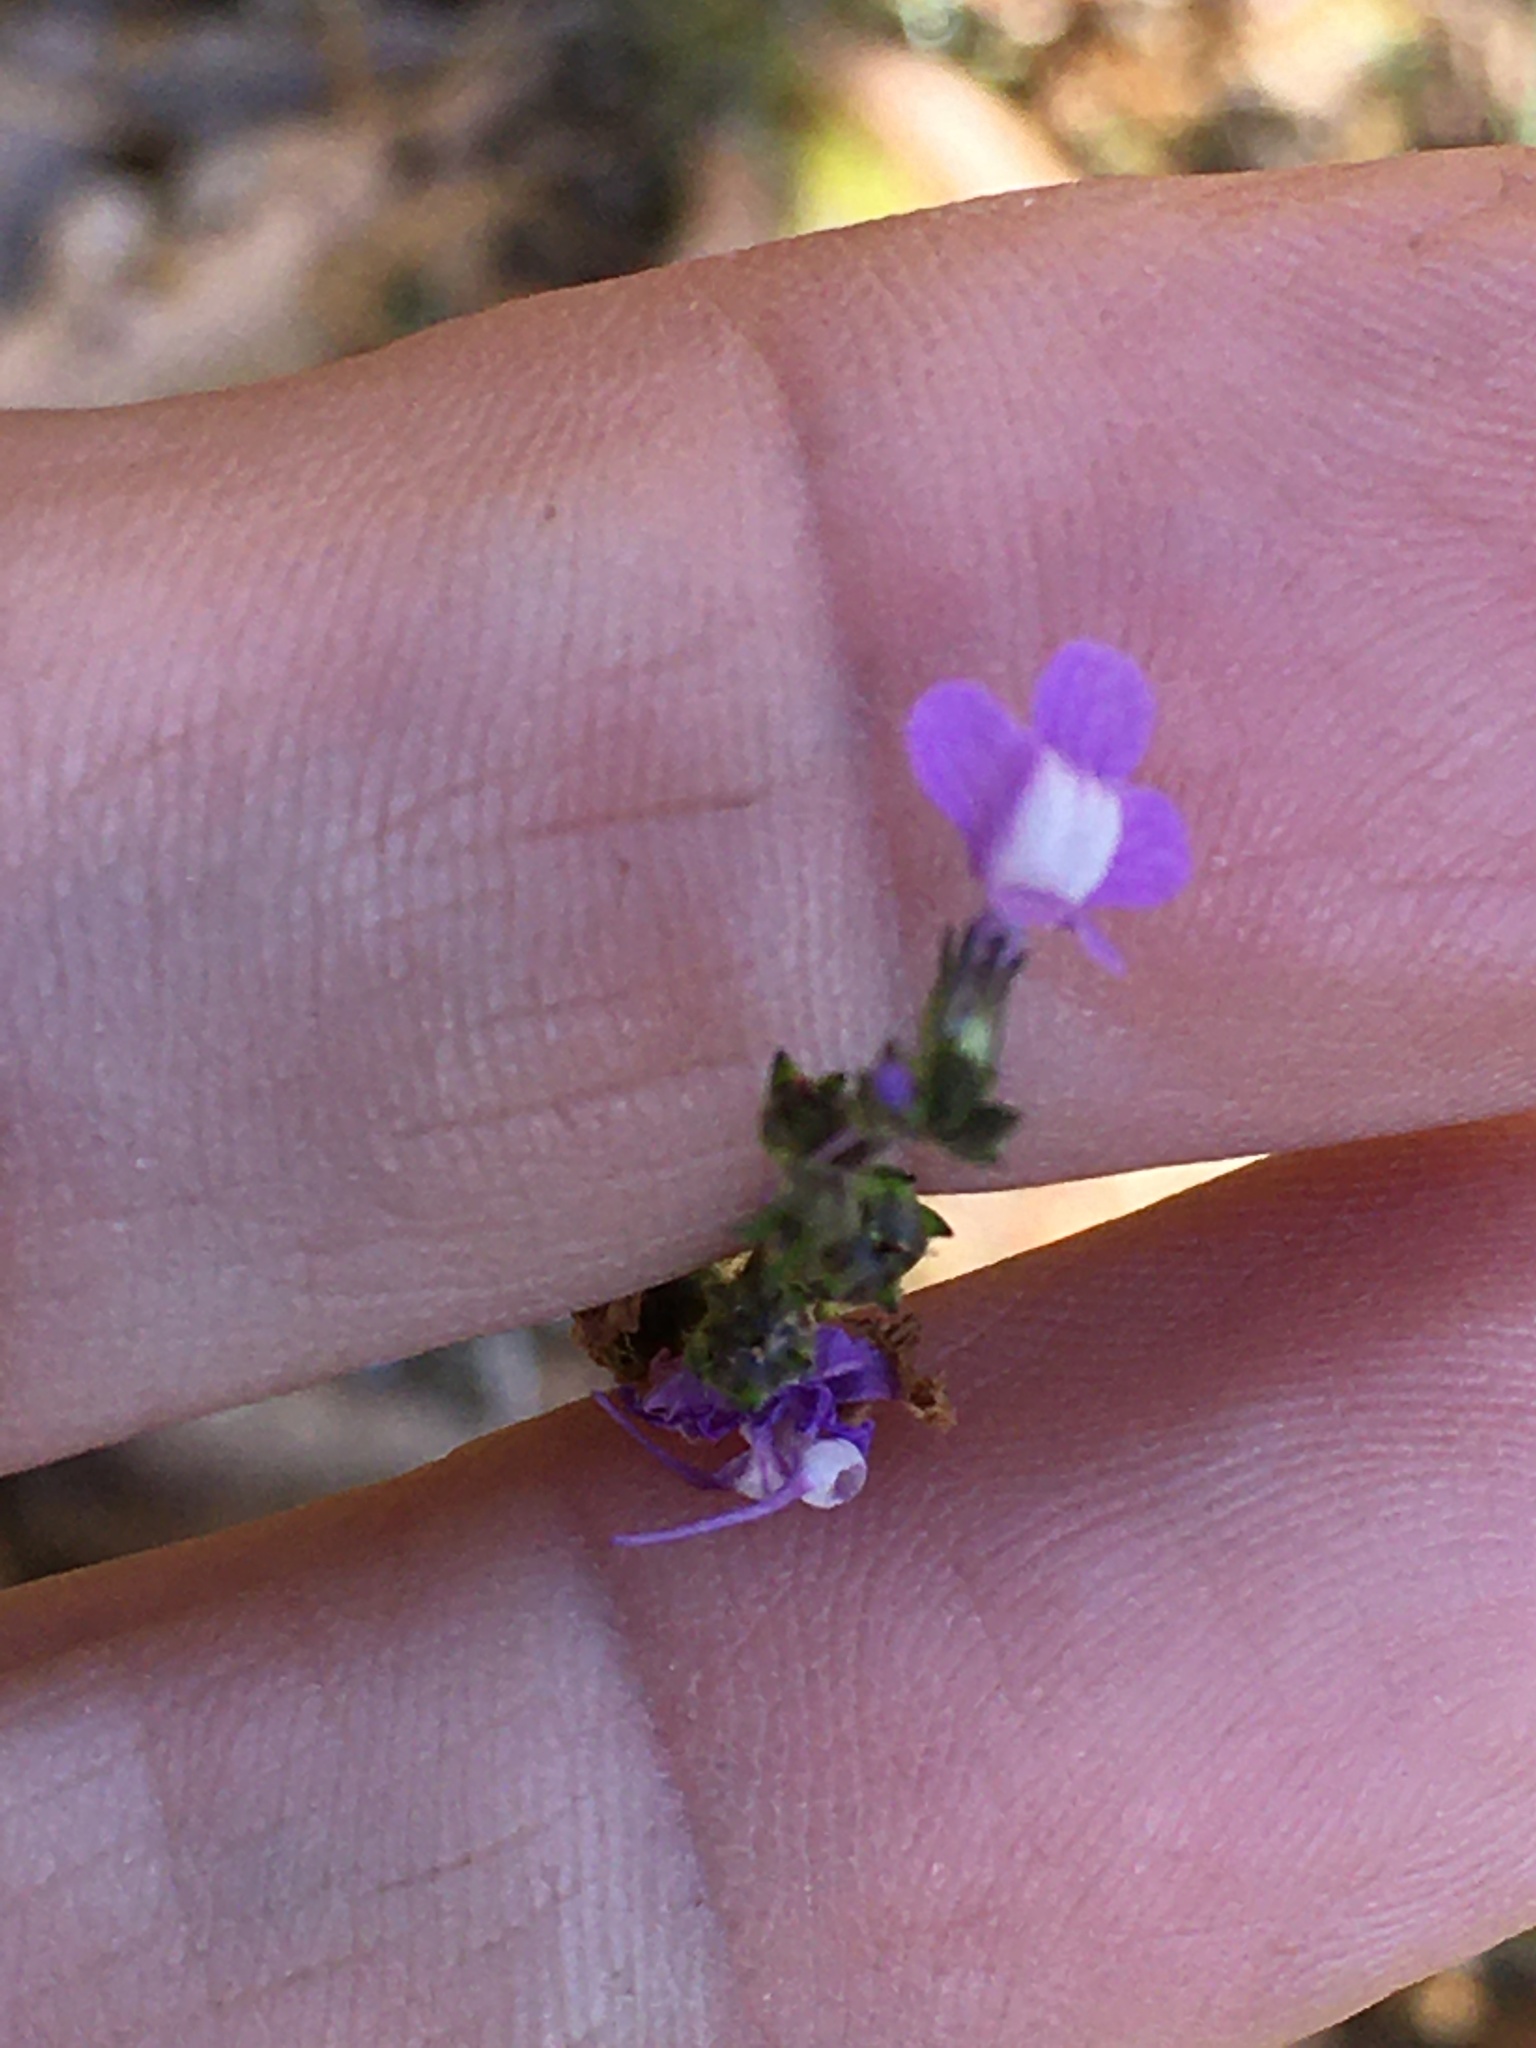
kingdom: Plantae
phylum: Tracheophyta
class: Magnoliopsida
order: Lamiales
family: Plantaginaceae
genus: Nuttallanthus
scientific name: Nuttallanthus canadensis
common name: Blue toadflax
